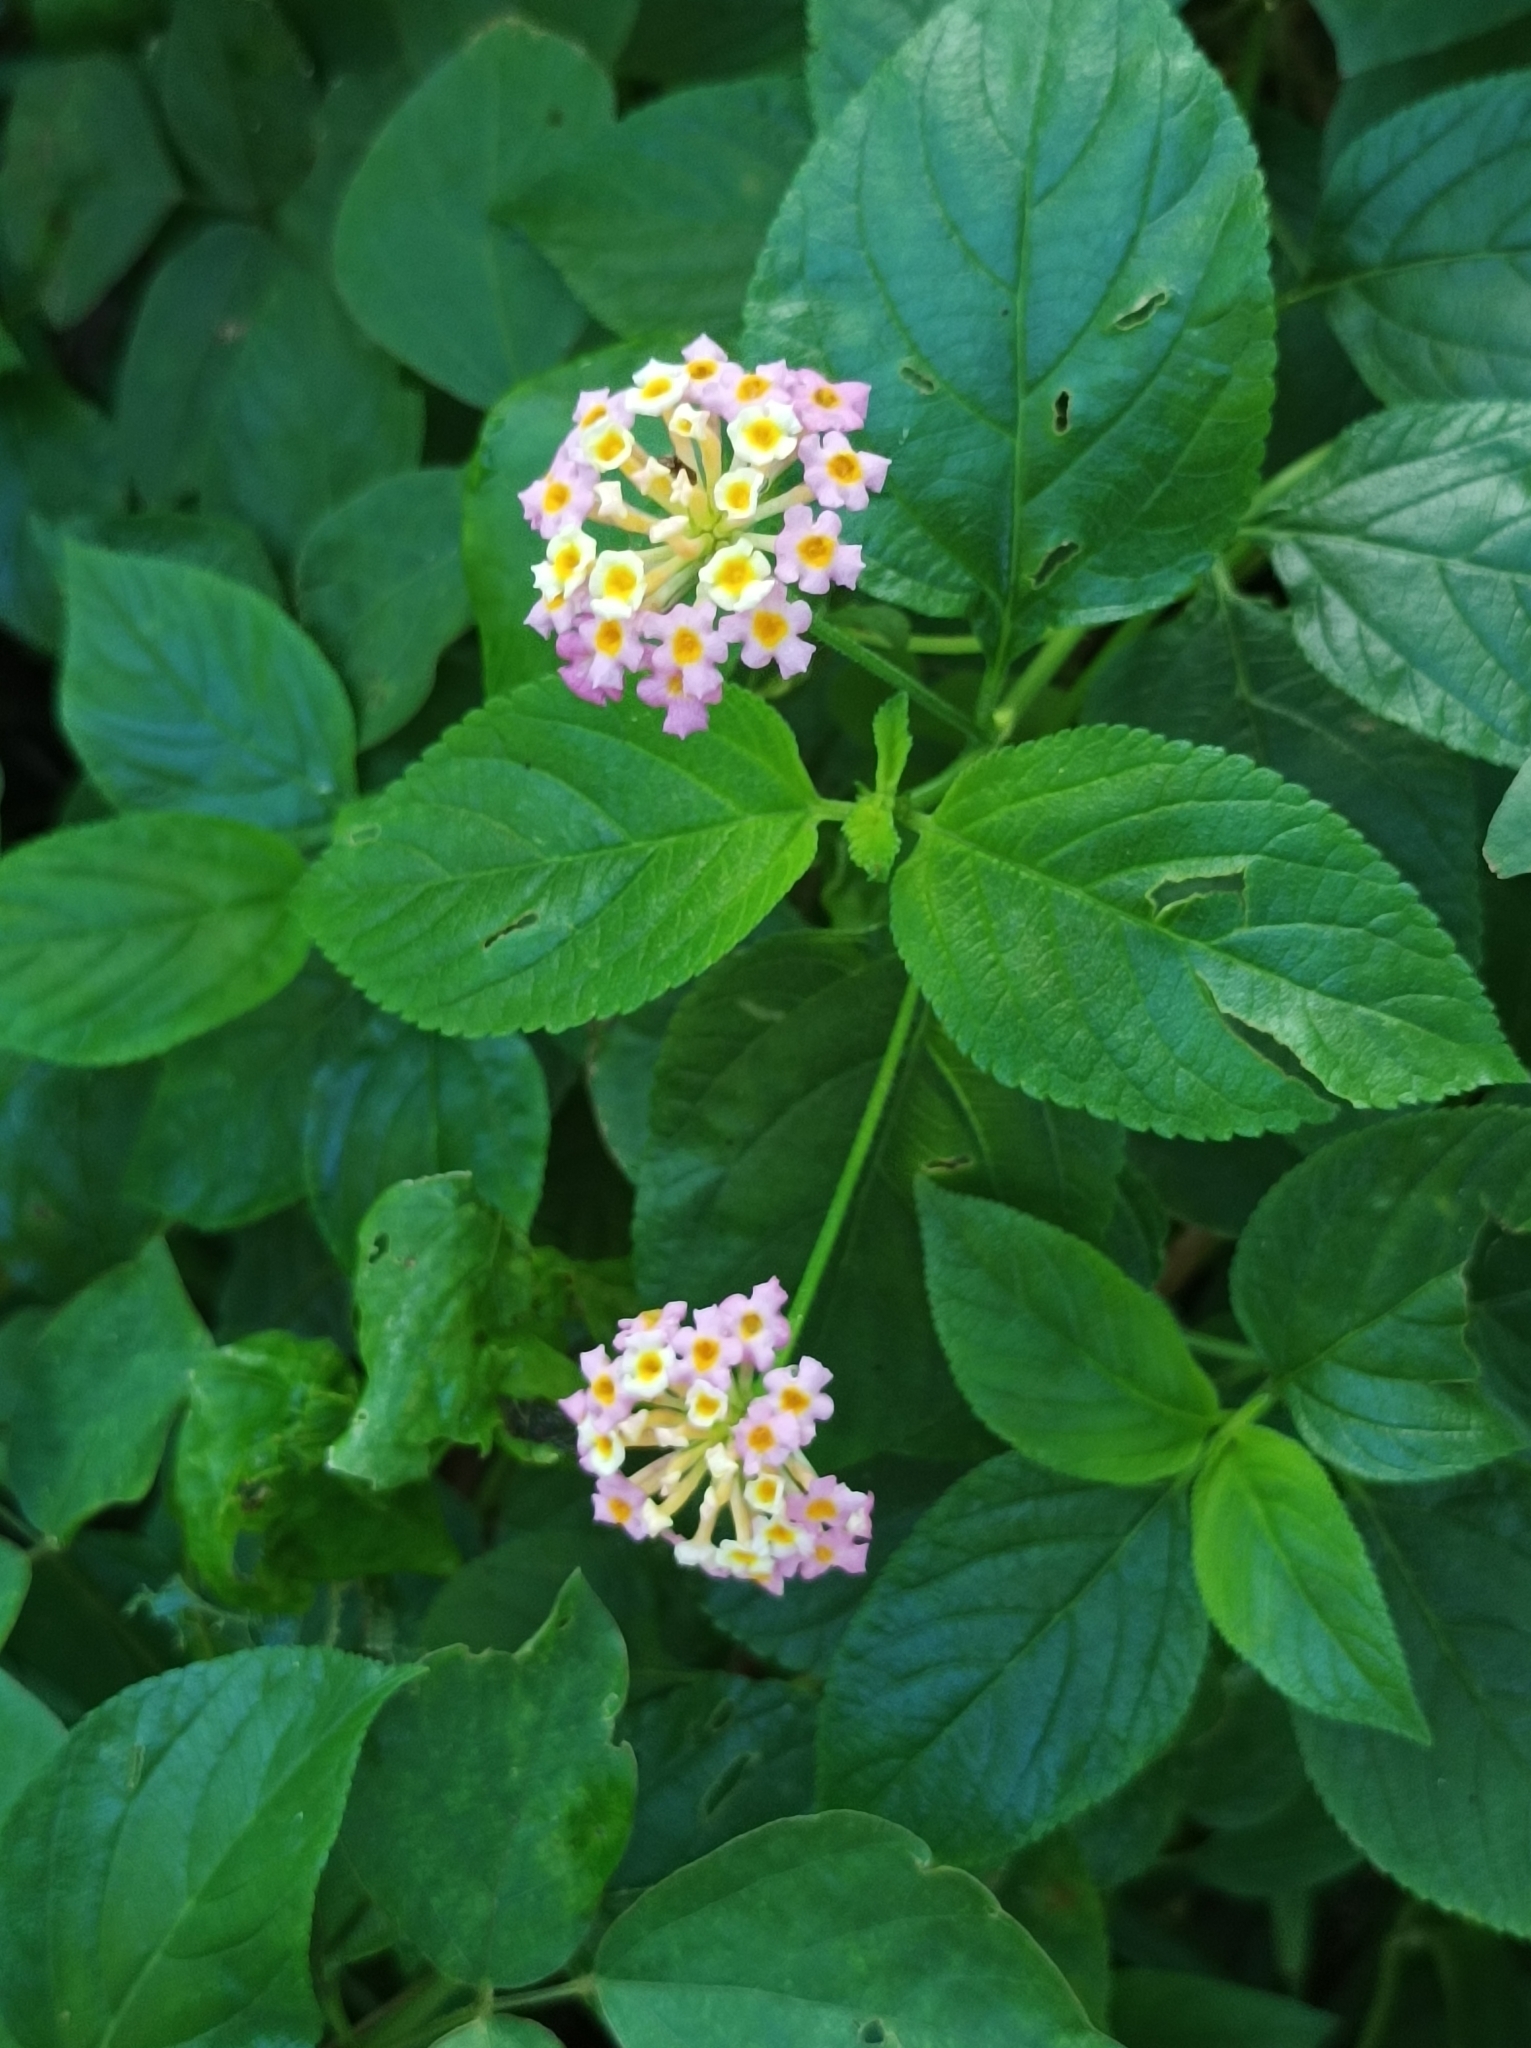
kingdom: Plantae
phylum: Tracheophyta
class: Magnoliopsida
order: Lamiales
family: Verbenaceae
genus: Lantana
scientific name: Lantana camara
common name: Lantana
